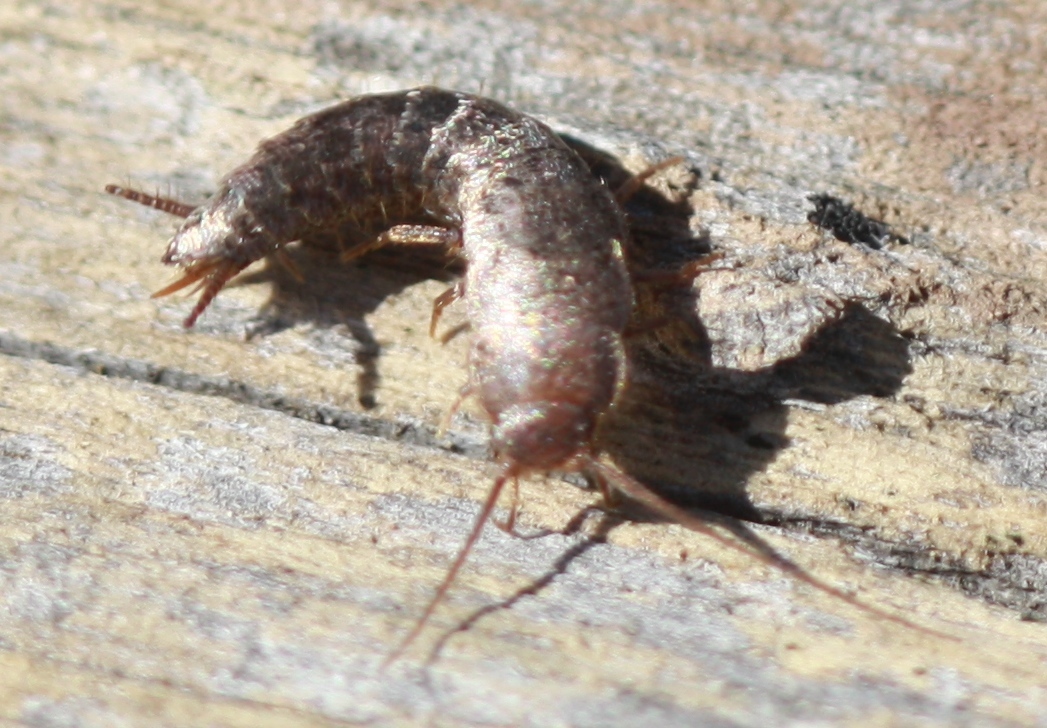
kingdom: Animalia
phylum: Arthropoda
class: Insecta
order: Zygentoma
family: Lepismatidae
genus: Allacrotelsa
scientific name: Allacrotelsa spinulata
